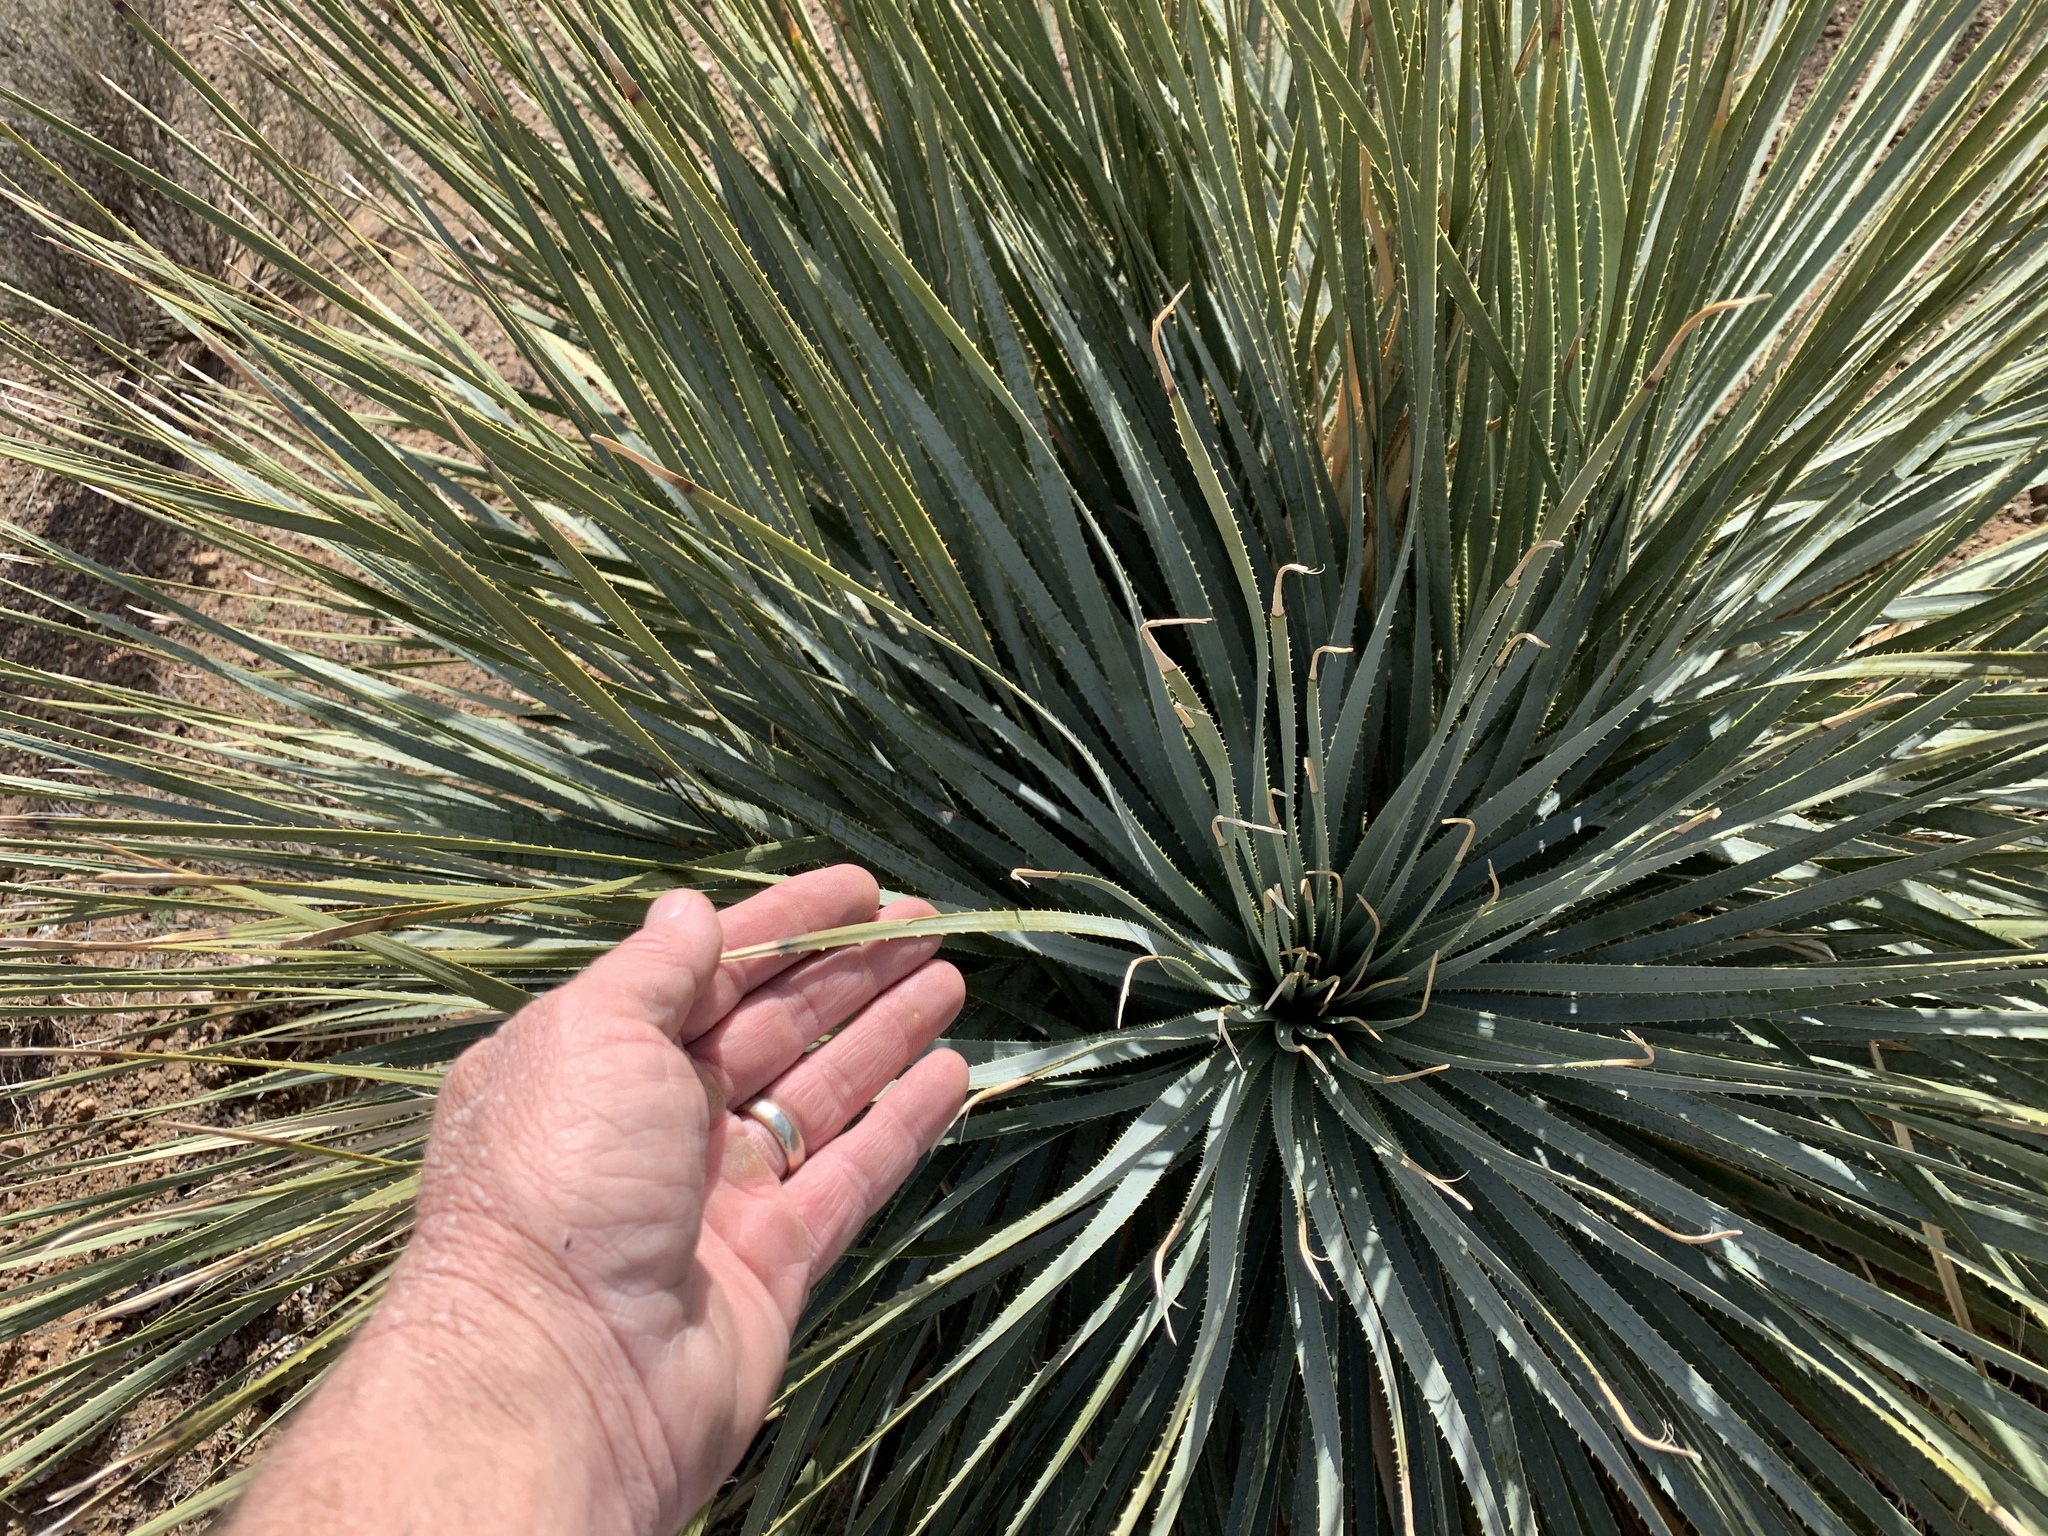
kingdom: Plantae
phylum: Tracheophyta
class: Liliopsida
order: Asparagales
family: Asparagaceae
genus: Dasylirion
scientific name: Dasylirion wheeleri
